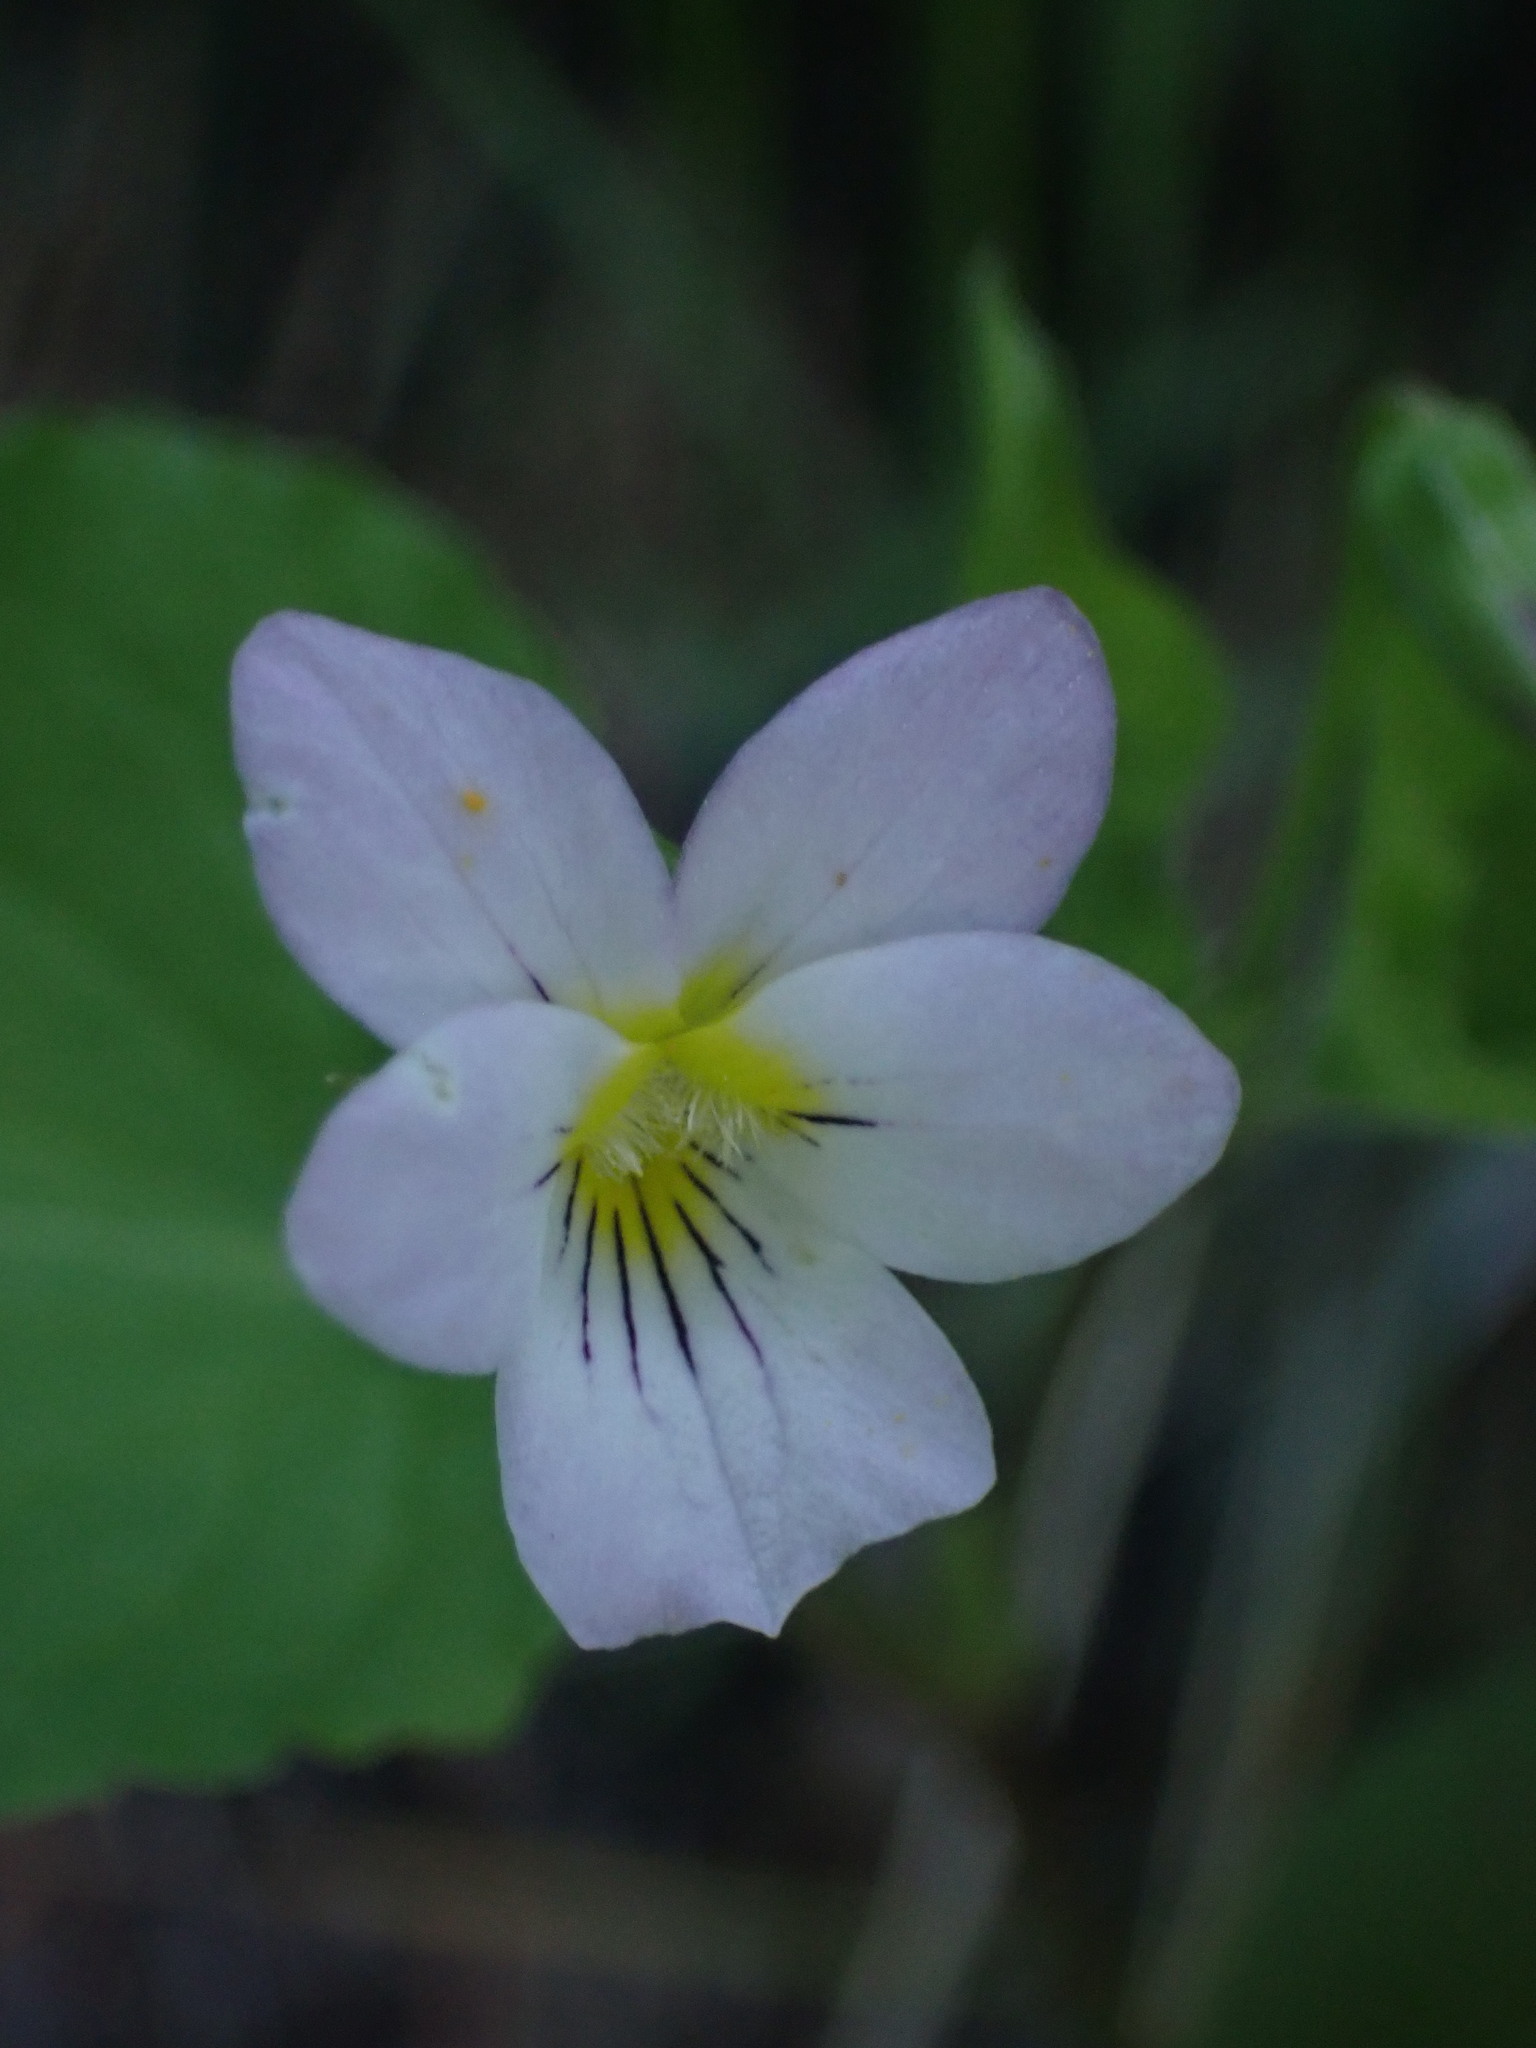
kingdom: Plantae
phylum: Tracheophyta
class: Magnoliopsida
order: Malpighiales
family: Violaceae
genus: Viola
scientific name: Viola canadensis
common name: Canada violet
